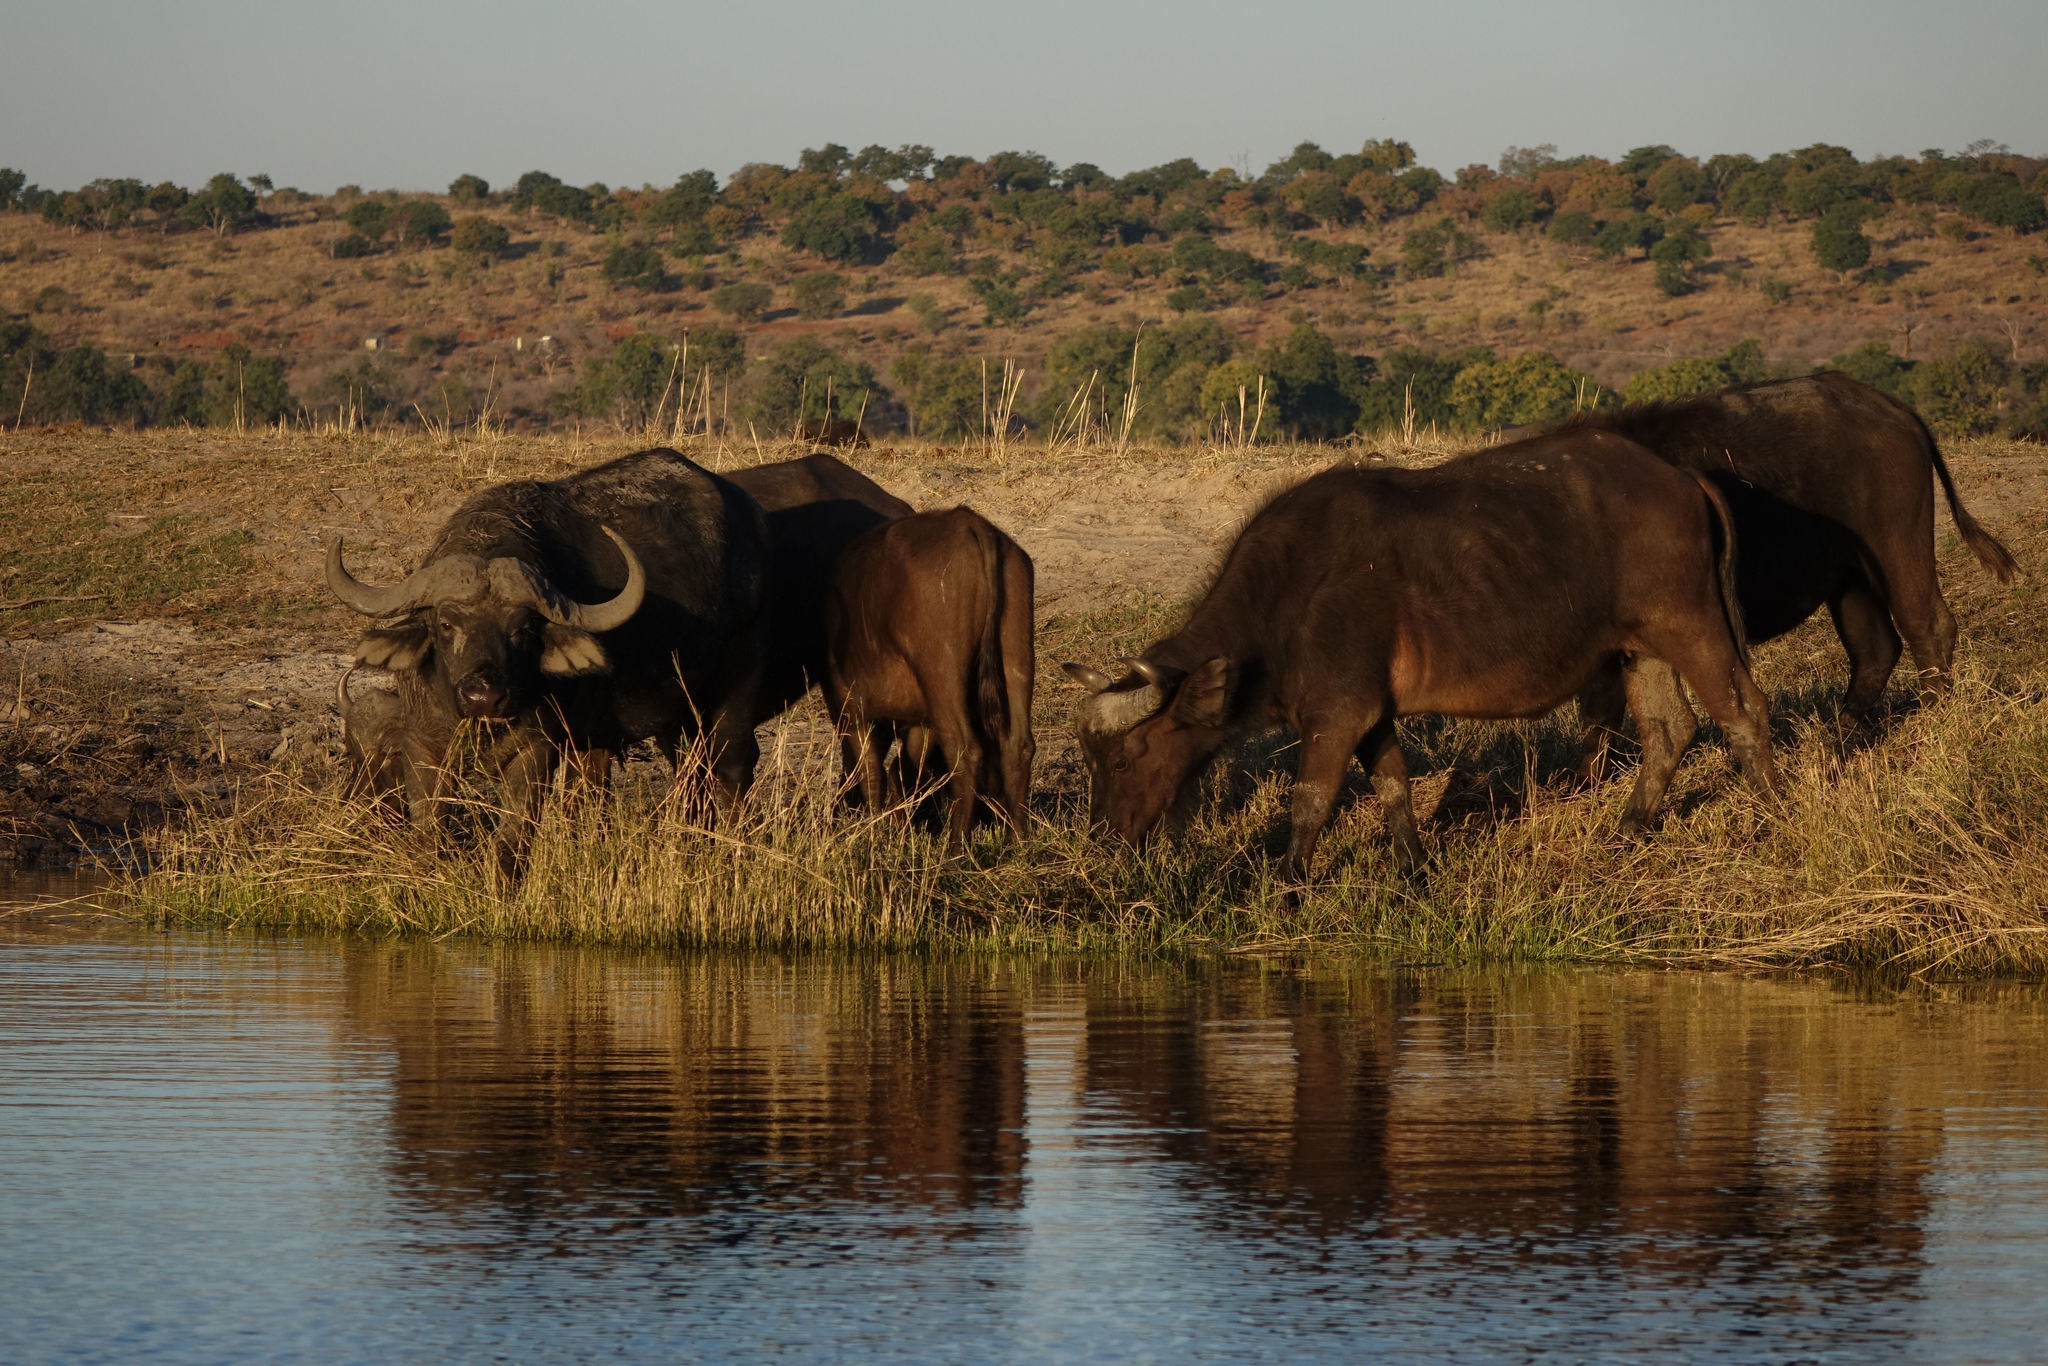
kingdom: Animalia
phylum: Chordata
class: Mammalia
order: Artiodactyla
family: Bovidae
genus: Syncerus
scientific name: Syncerus caffer
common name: African buffalo
